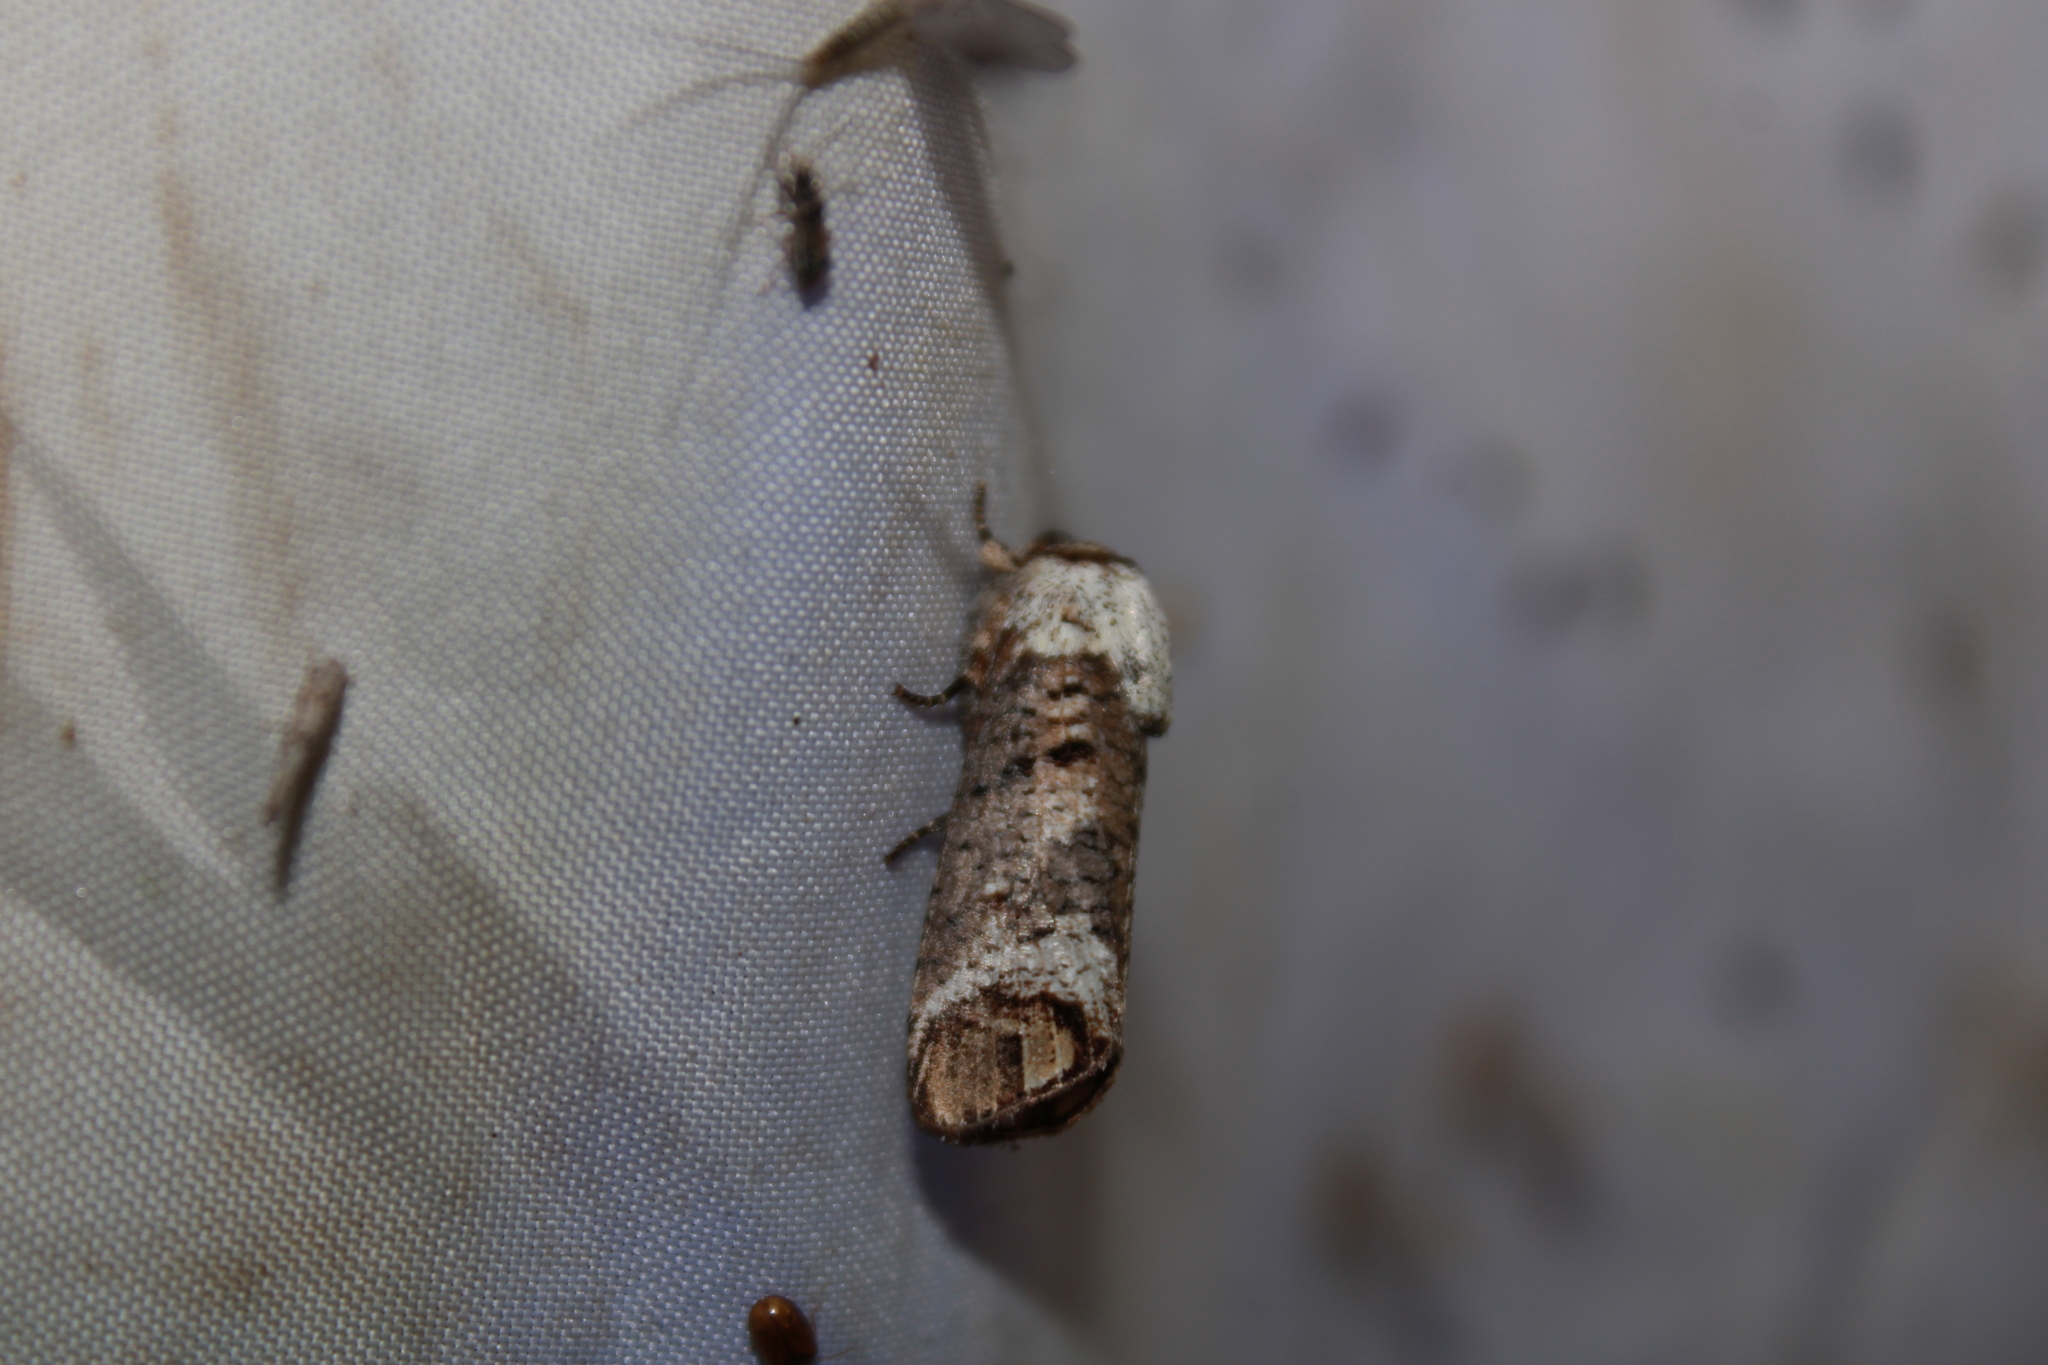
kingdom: Animalia
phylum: Arthropoda
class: Insecta
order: Lepidoptera
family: Cossidae
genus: Cossula
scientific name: Cossula magnifica
